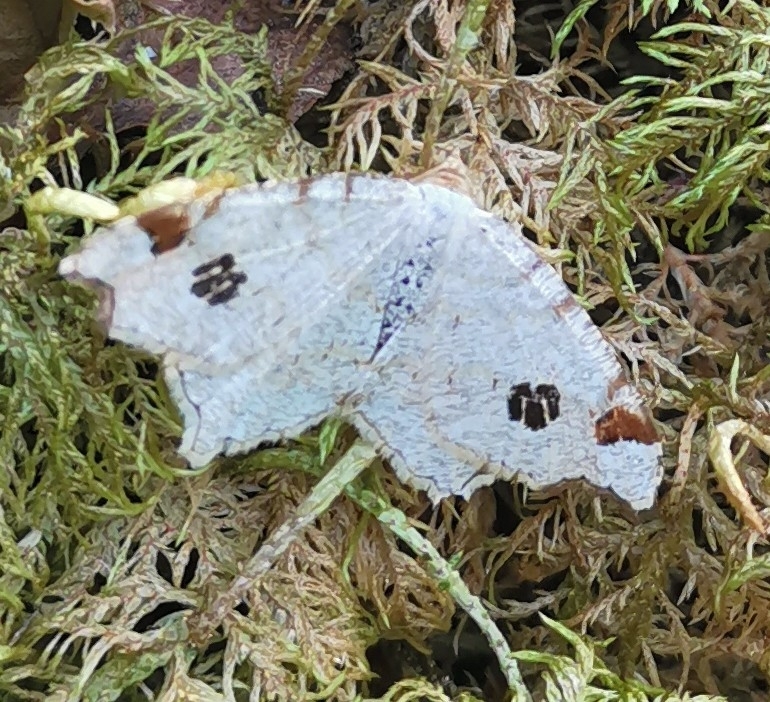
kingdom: Animalia
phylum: Arthropoda
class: Insecta
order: Lepidoptera
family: Geometridae
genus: Macaria
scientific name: Macaria notata
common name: Peacock moth
